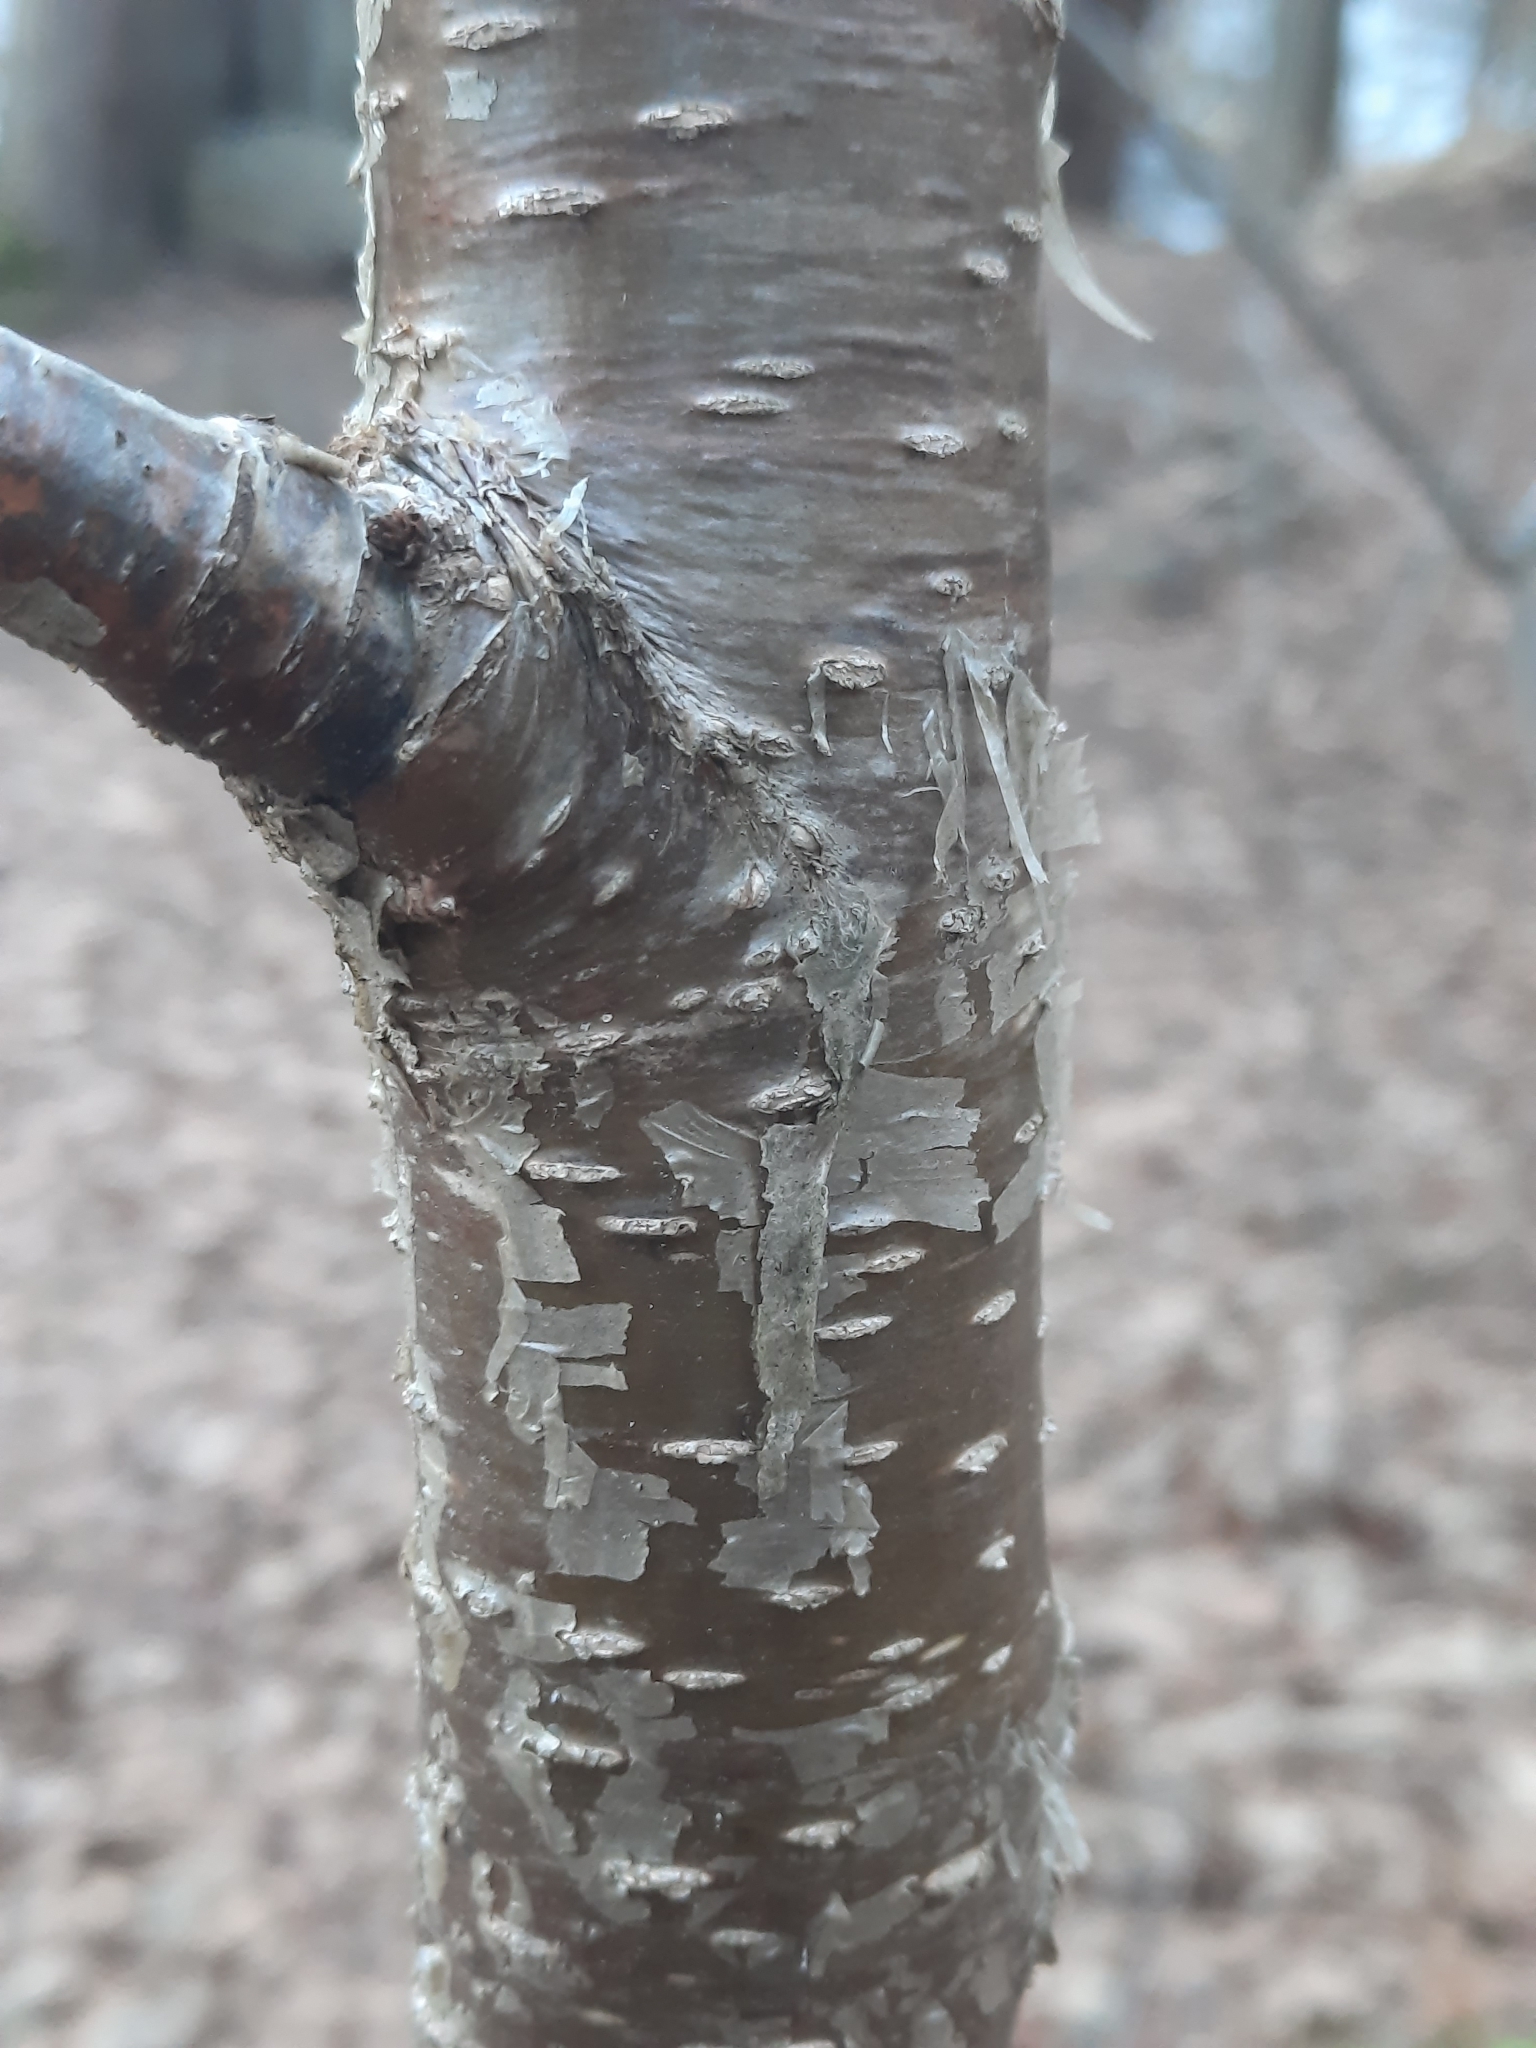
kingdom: Plantae
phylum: Tracheophyta
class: Magnoliopsida
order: Fagales
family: Betulaceae
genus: Betula
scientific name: Betula alleghaniensis
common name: Yellow birch
